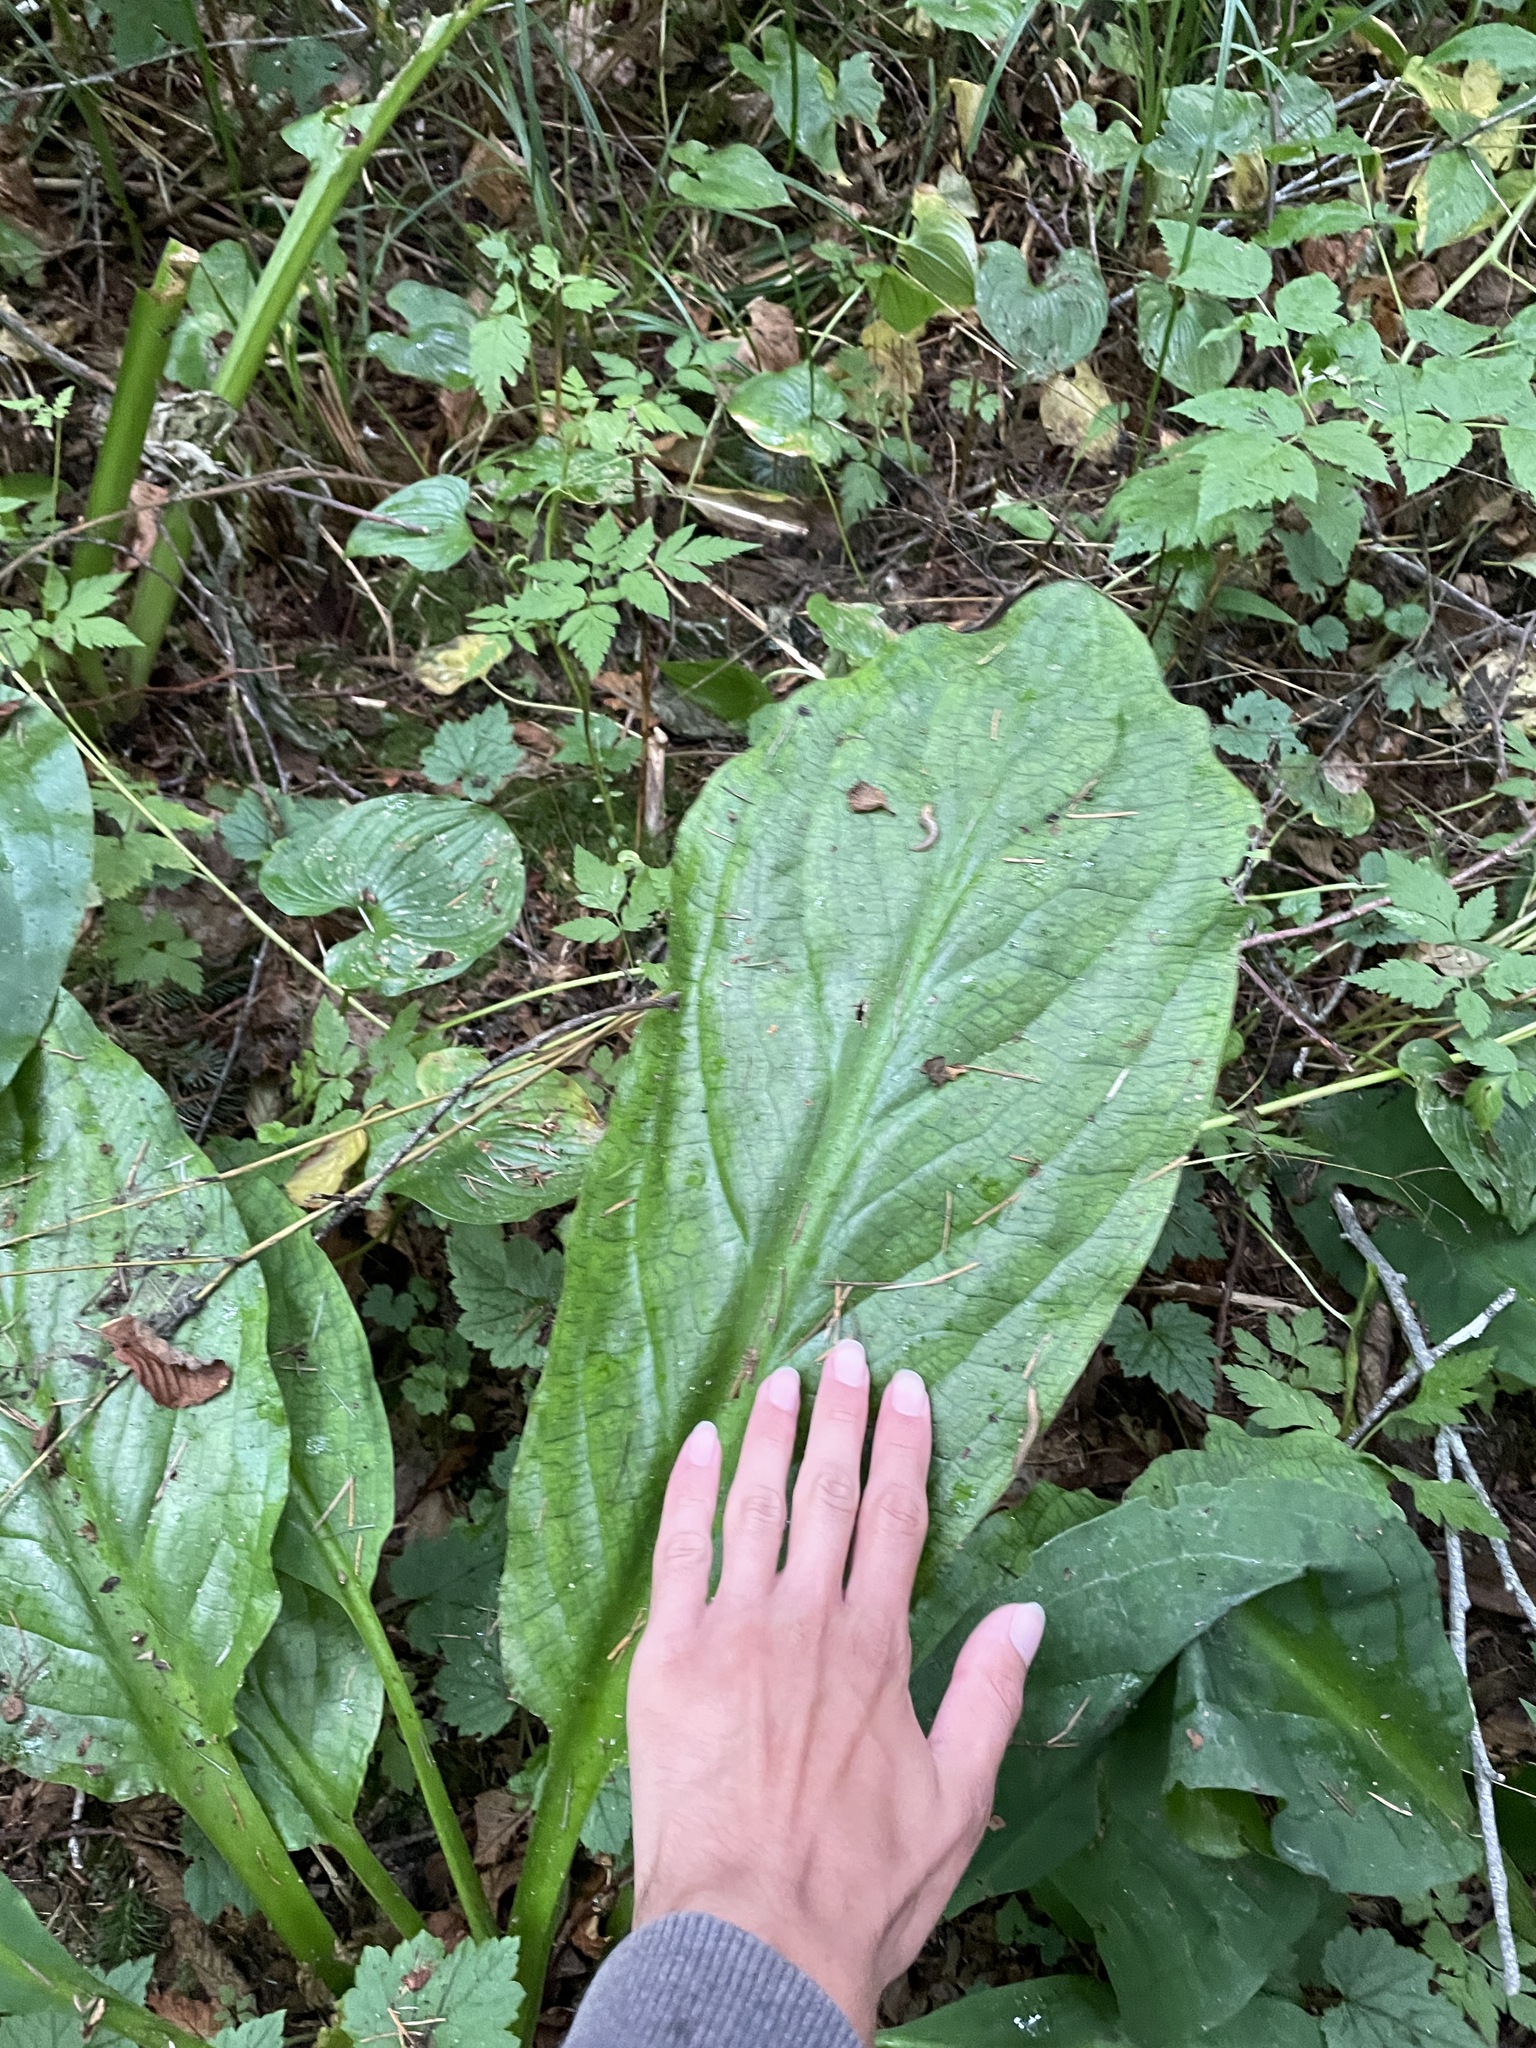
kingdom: Plantae
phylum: Tracheophyta
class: Liliopsida
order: Alismatales
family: Araceae
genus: Lysichiton
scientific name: Lysichiton americanus
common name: American skunk cabbage
